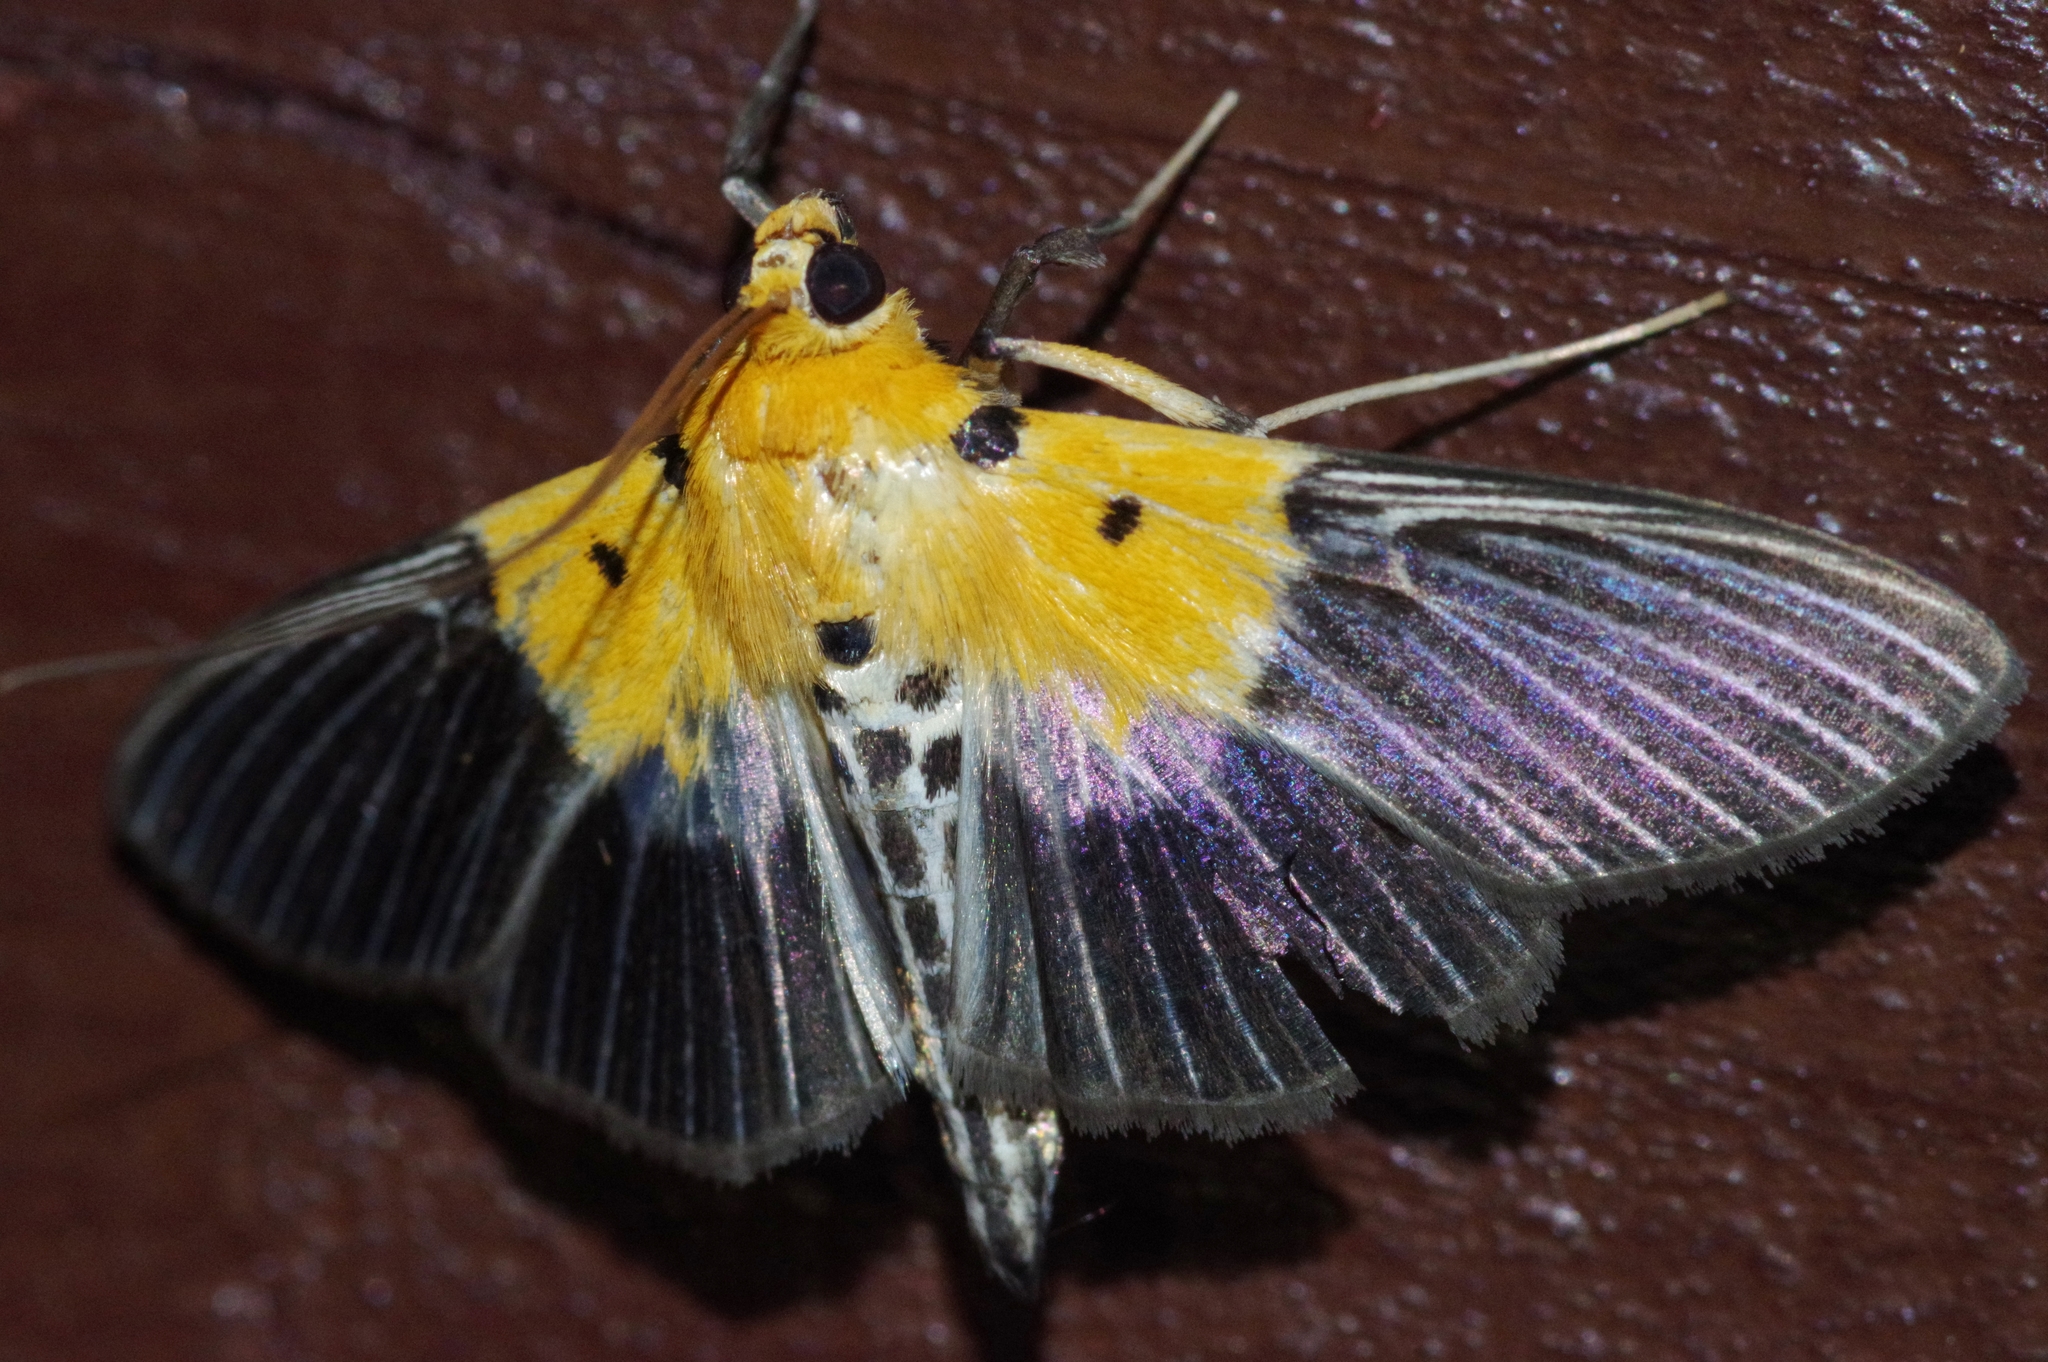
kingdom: Animalia
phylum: Arthropoda
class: Insecta
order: Lepidoptera
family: Crambidae
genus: Nevrina
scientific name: Nevrina procopia
